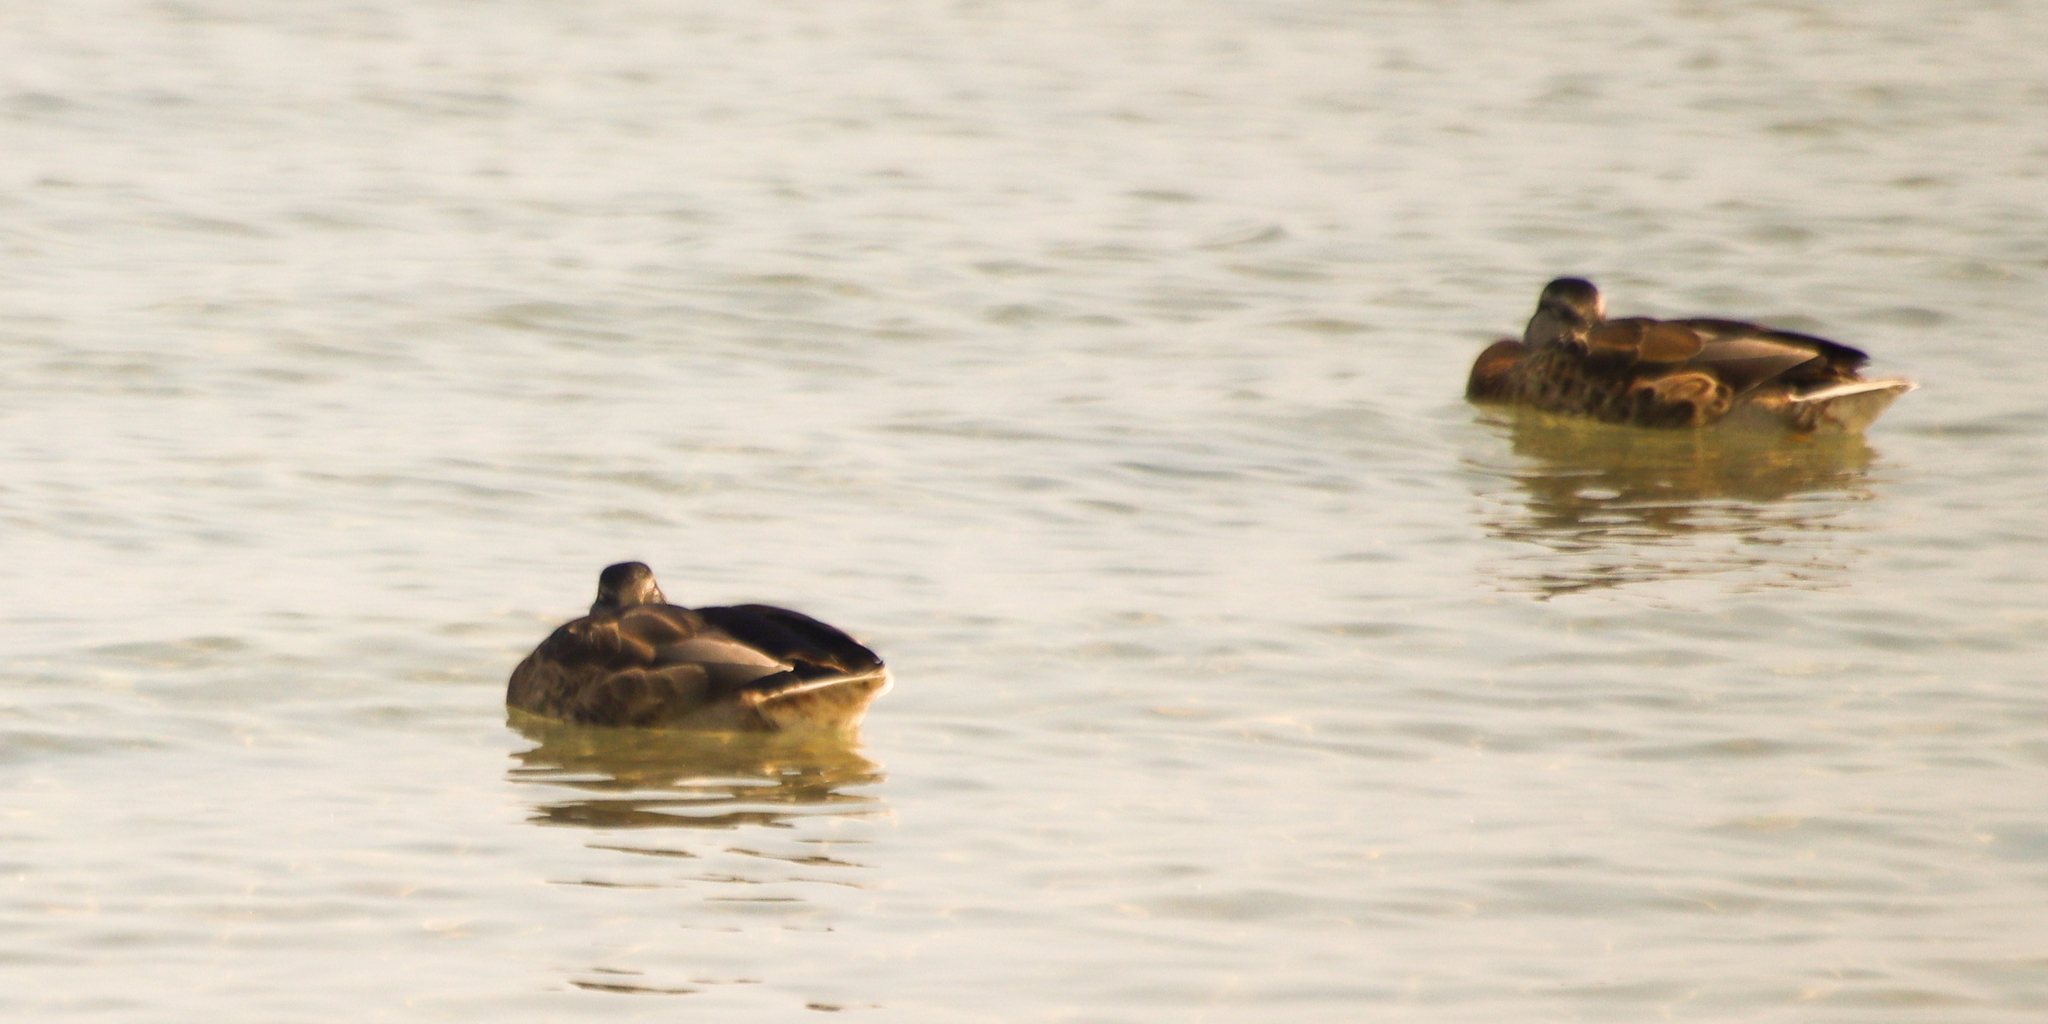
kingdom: Animalia
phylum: Chordata
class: Aves
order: Anseriformes
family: Anatidae
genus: Anas
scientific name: Anas platyrhynchos
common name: Mallard
